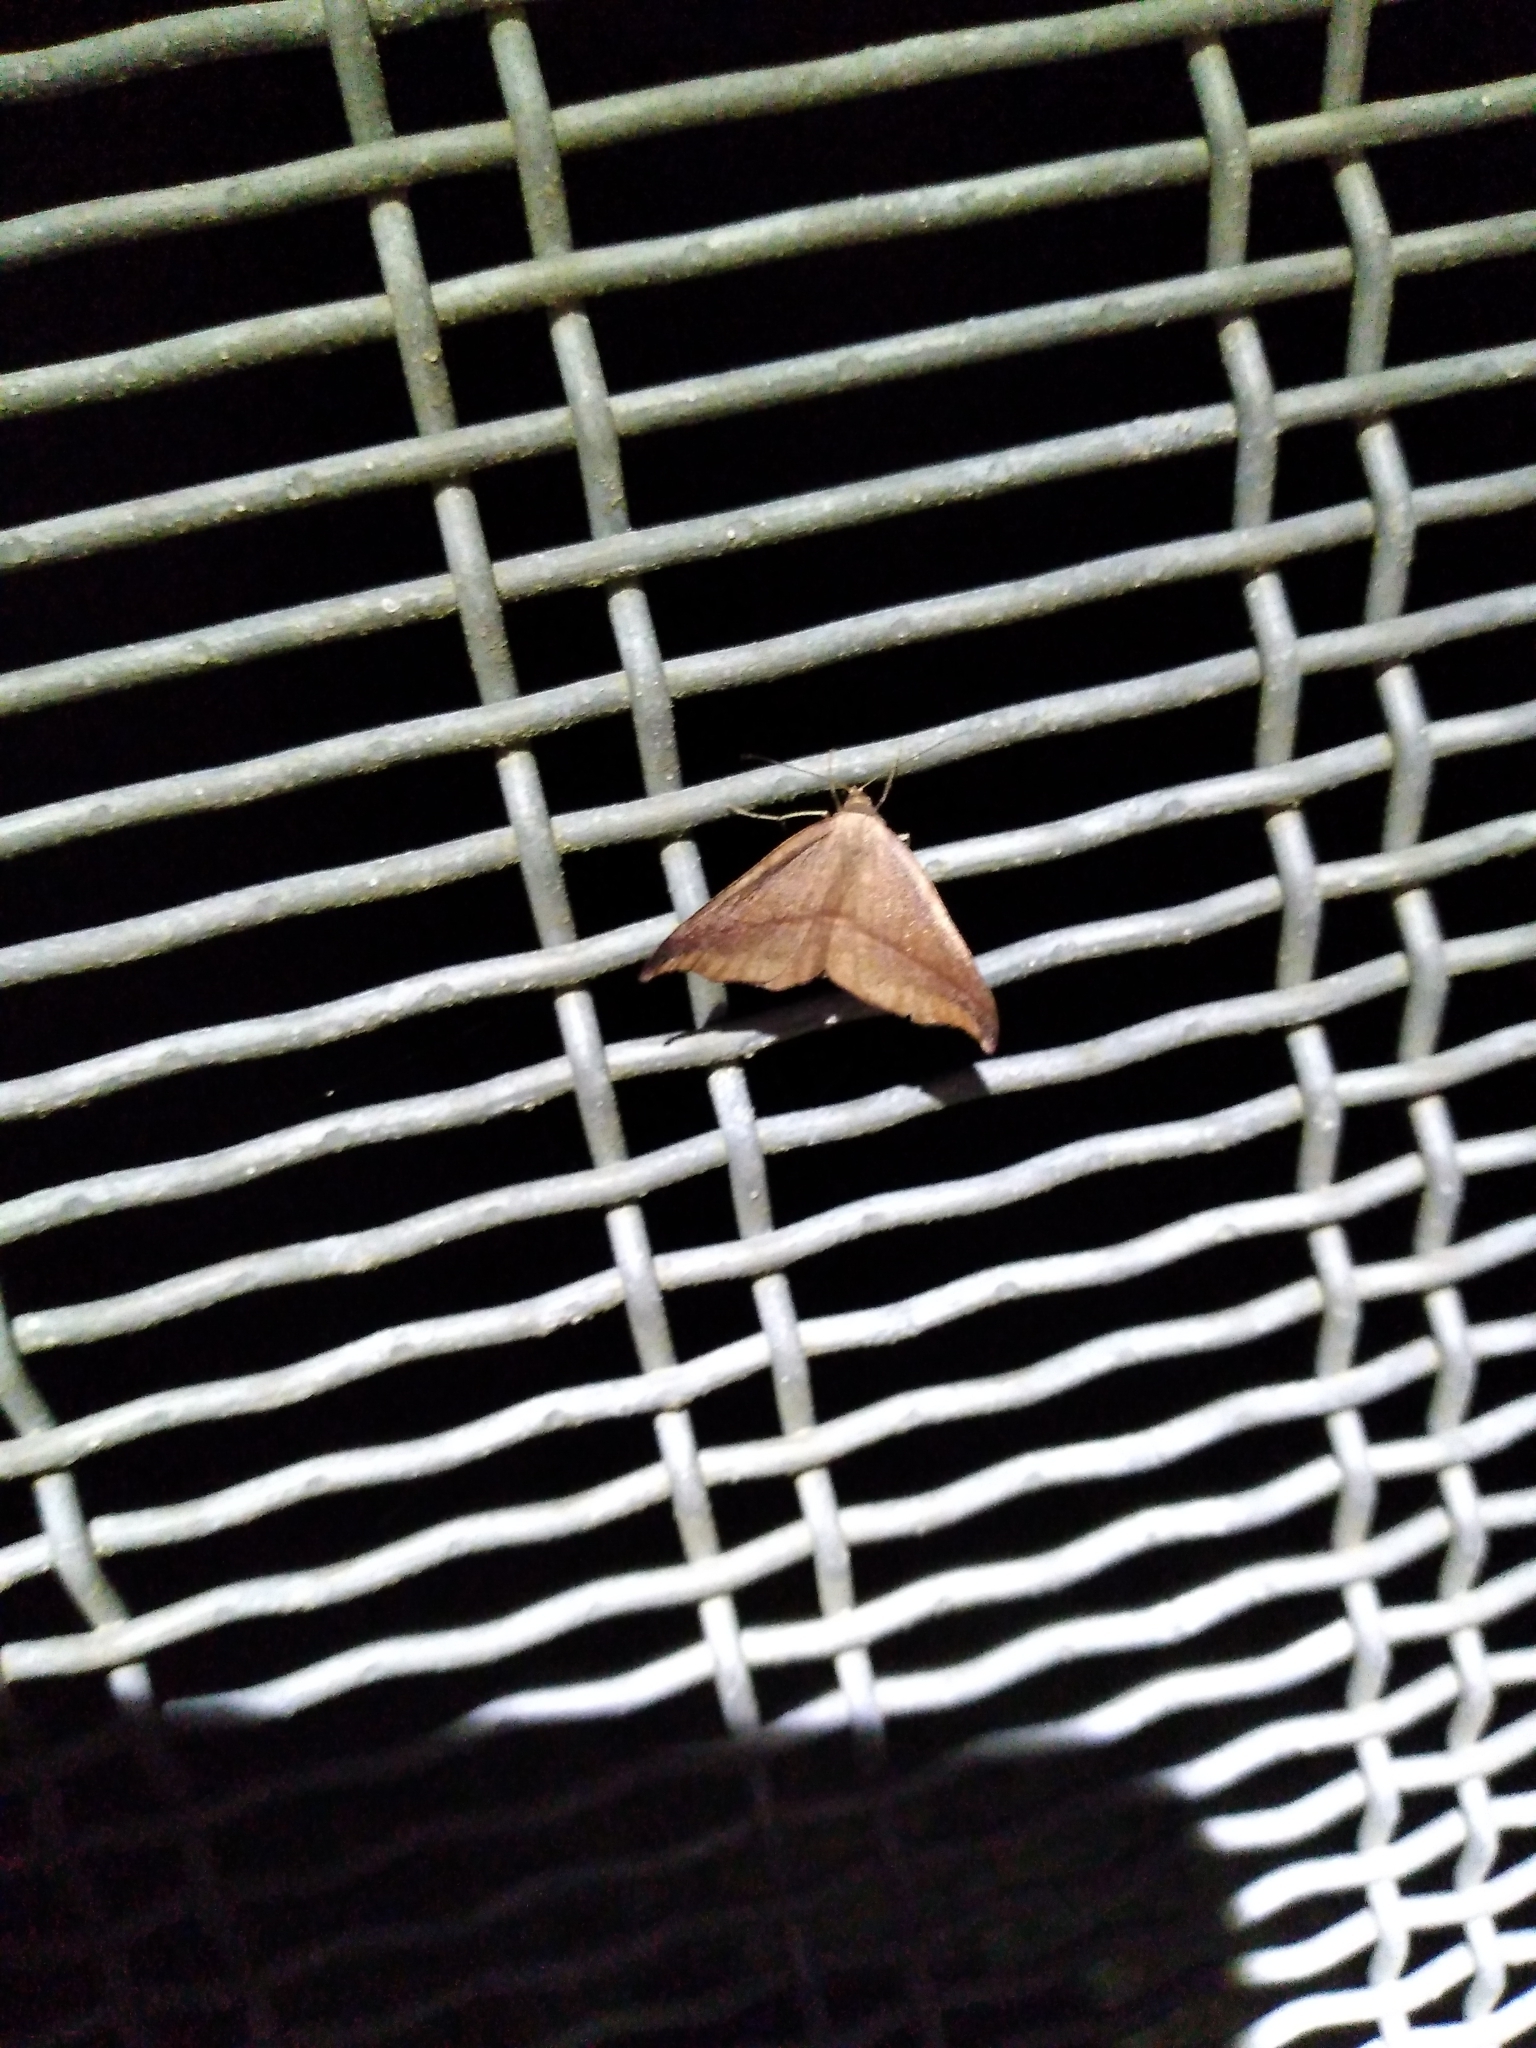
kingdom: Animalia
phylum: Arthropoda
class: Insecta
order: Lepidoptera
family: Geometridae
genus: Sarisa
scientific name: Sarisa muriferata
